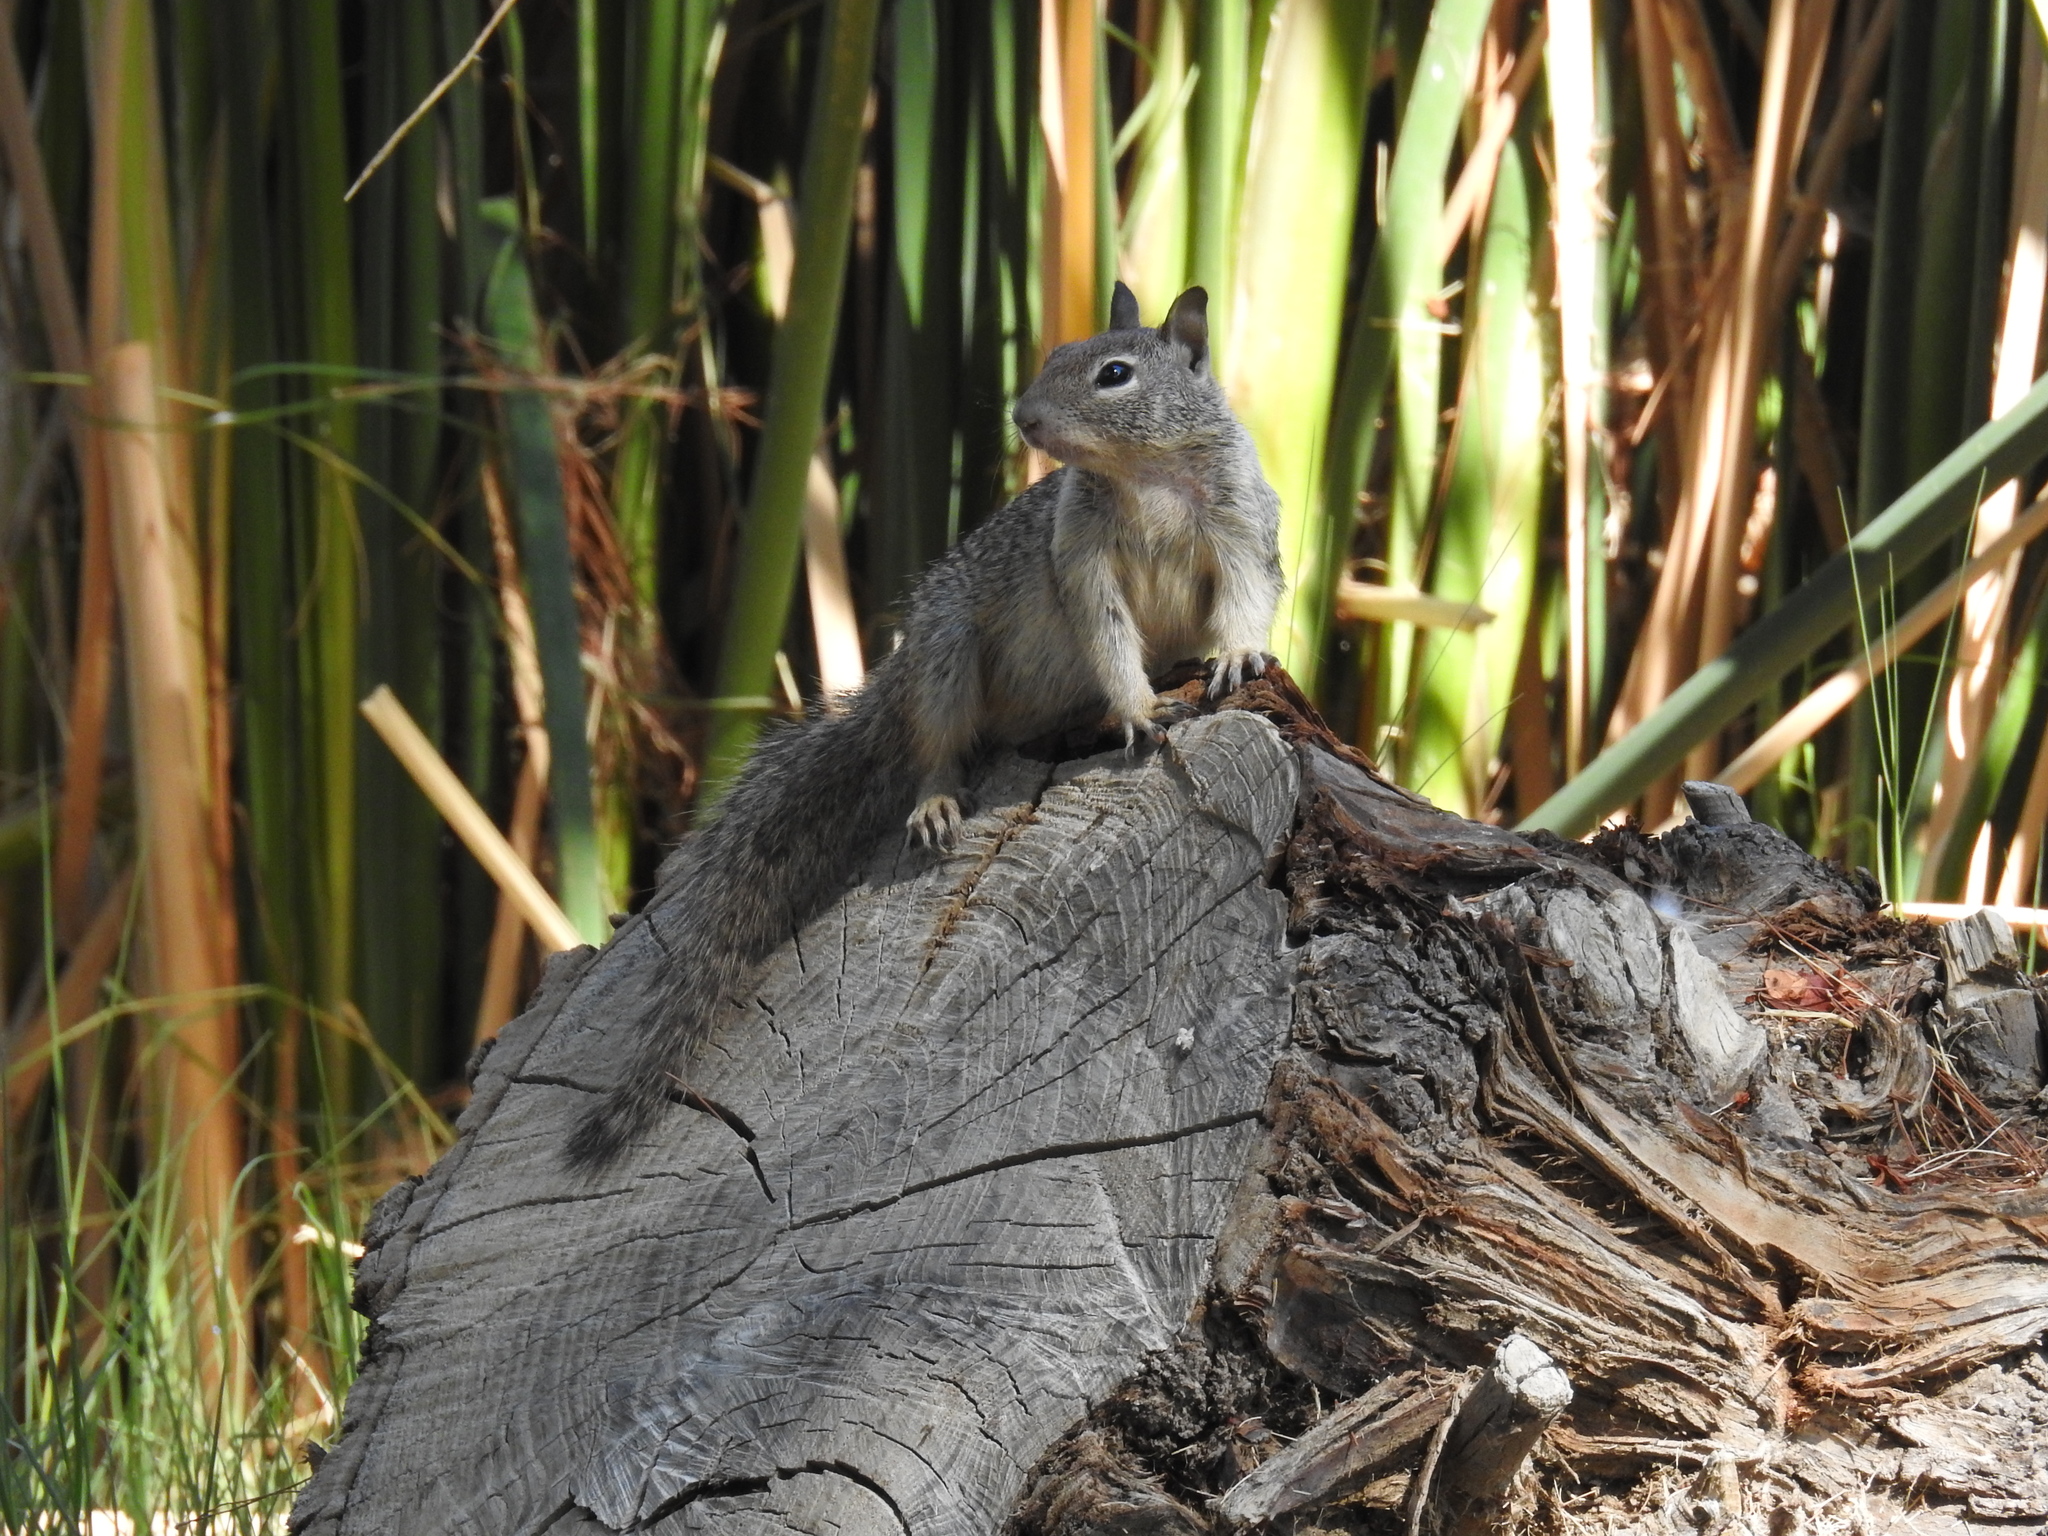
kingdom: Animalia
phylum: Chordata
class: Mammalia
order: Rodentia
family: Sciuridae
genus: Otospermophilus
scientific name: Otospermophilus beecheyi
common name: California ground squirrel
